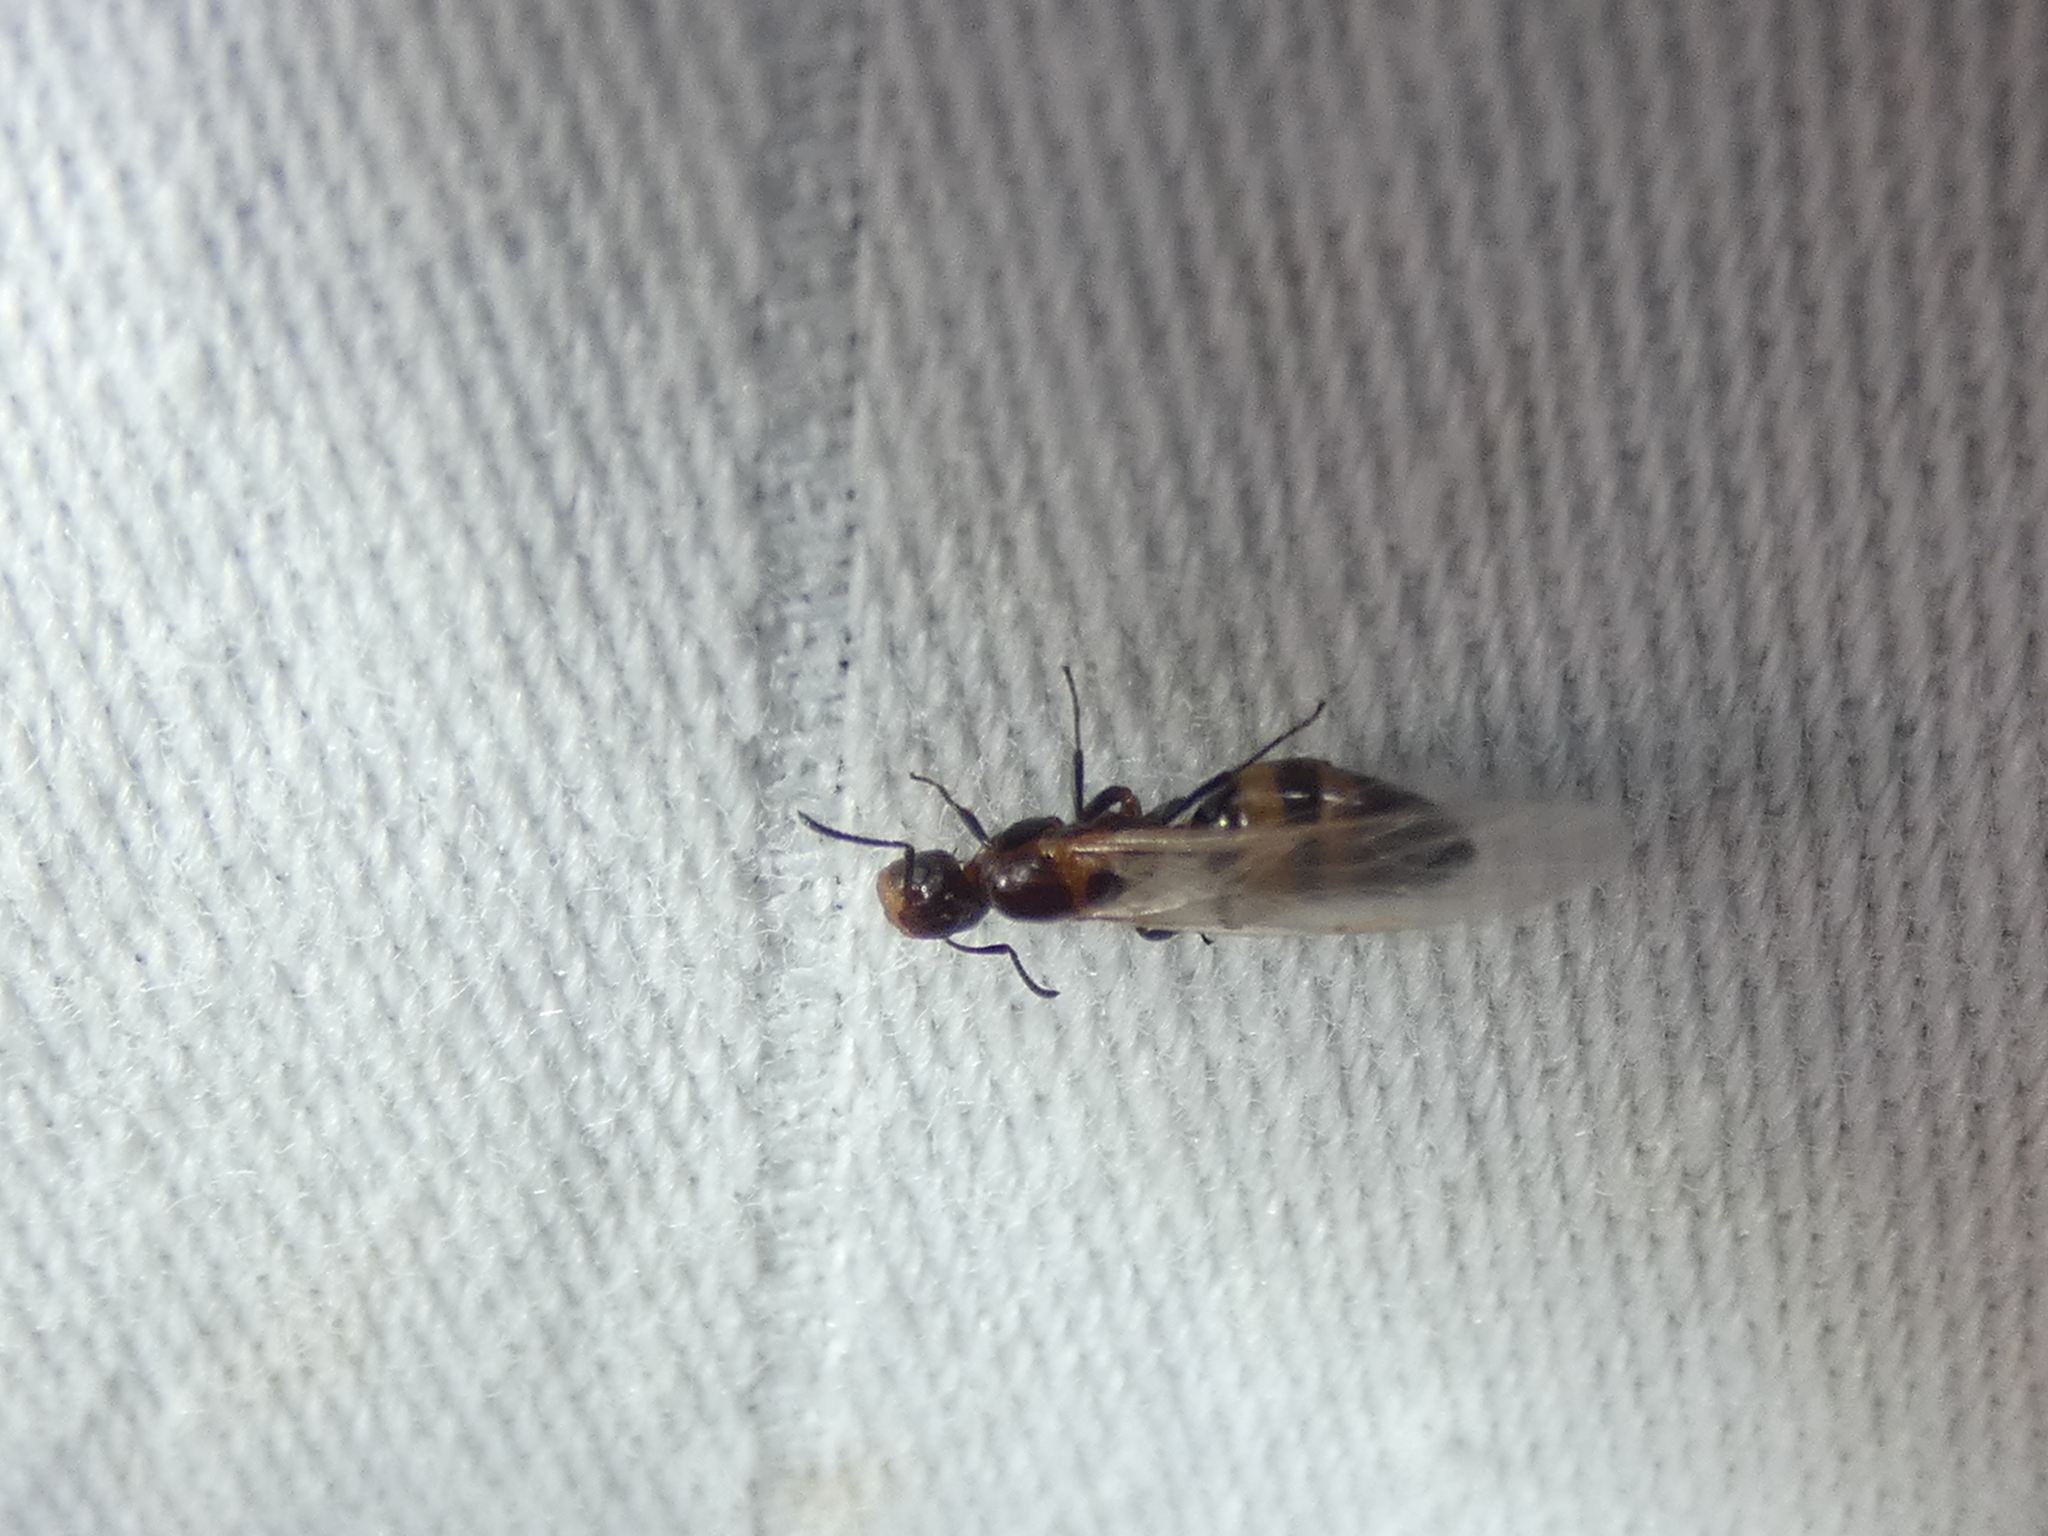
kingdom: Animalia
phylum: Arthropoda
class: Insecta
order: Hymenoptera
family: Formicidae
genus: Colobopsis
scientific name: Colobopsis impressa
